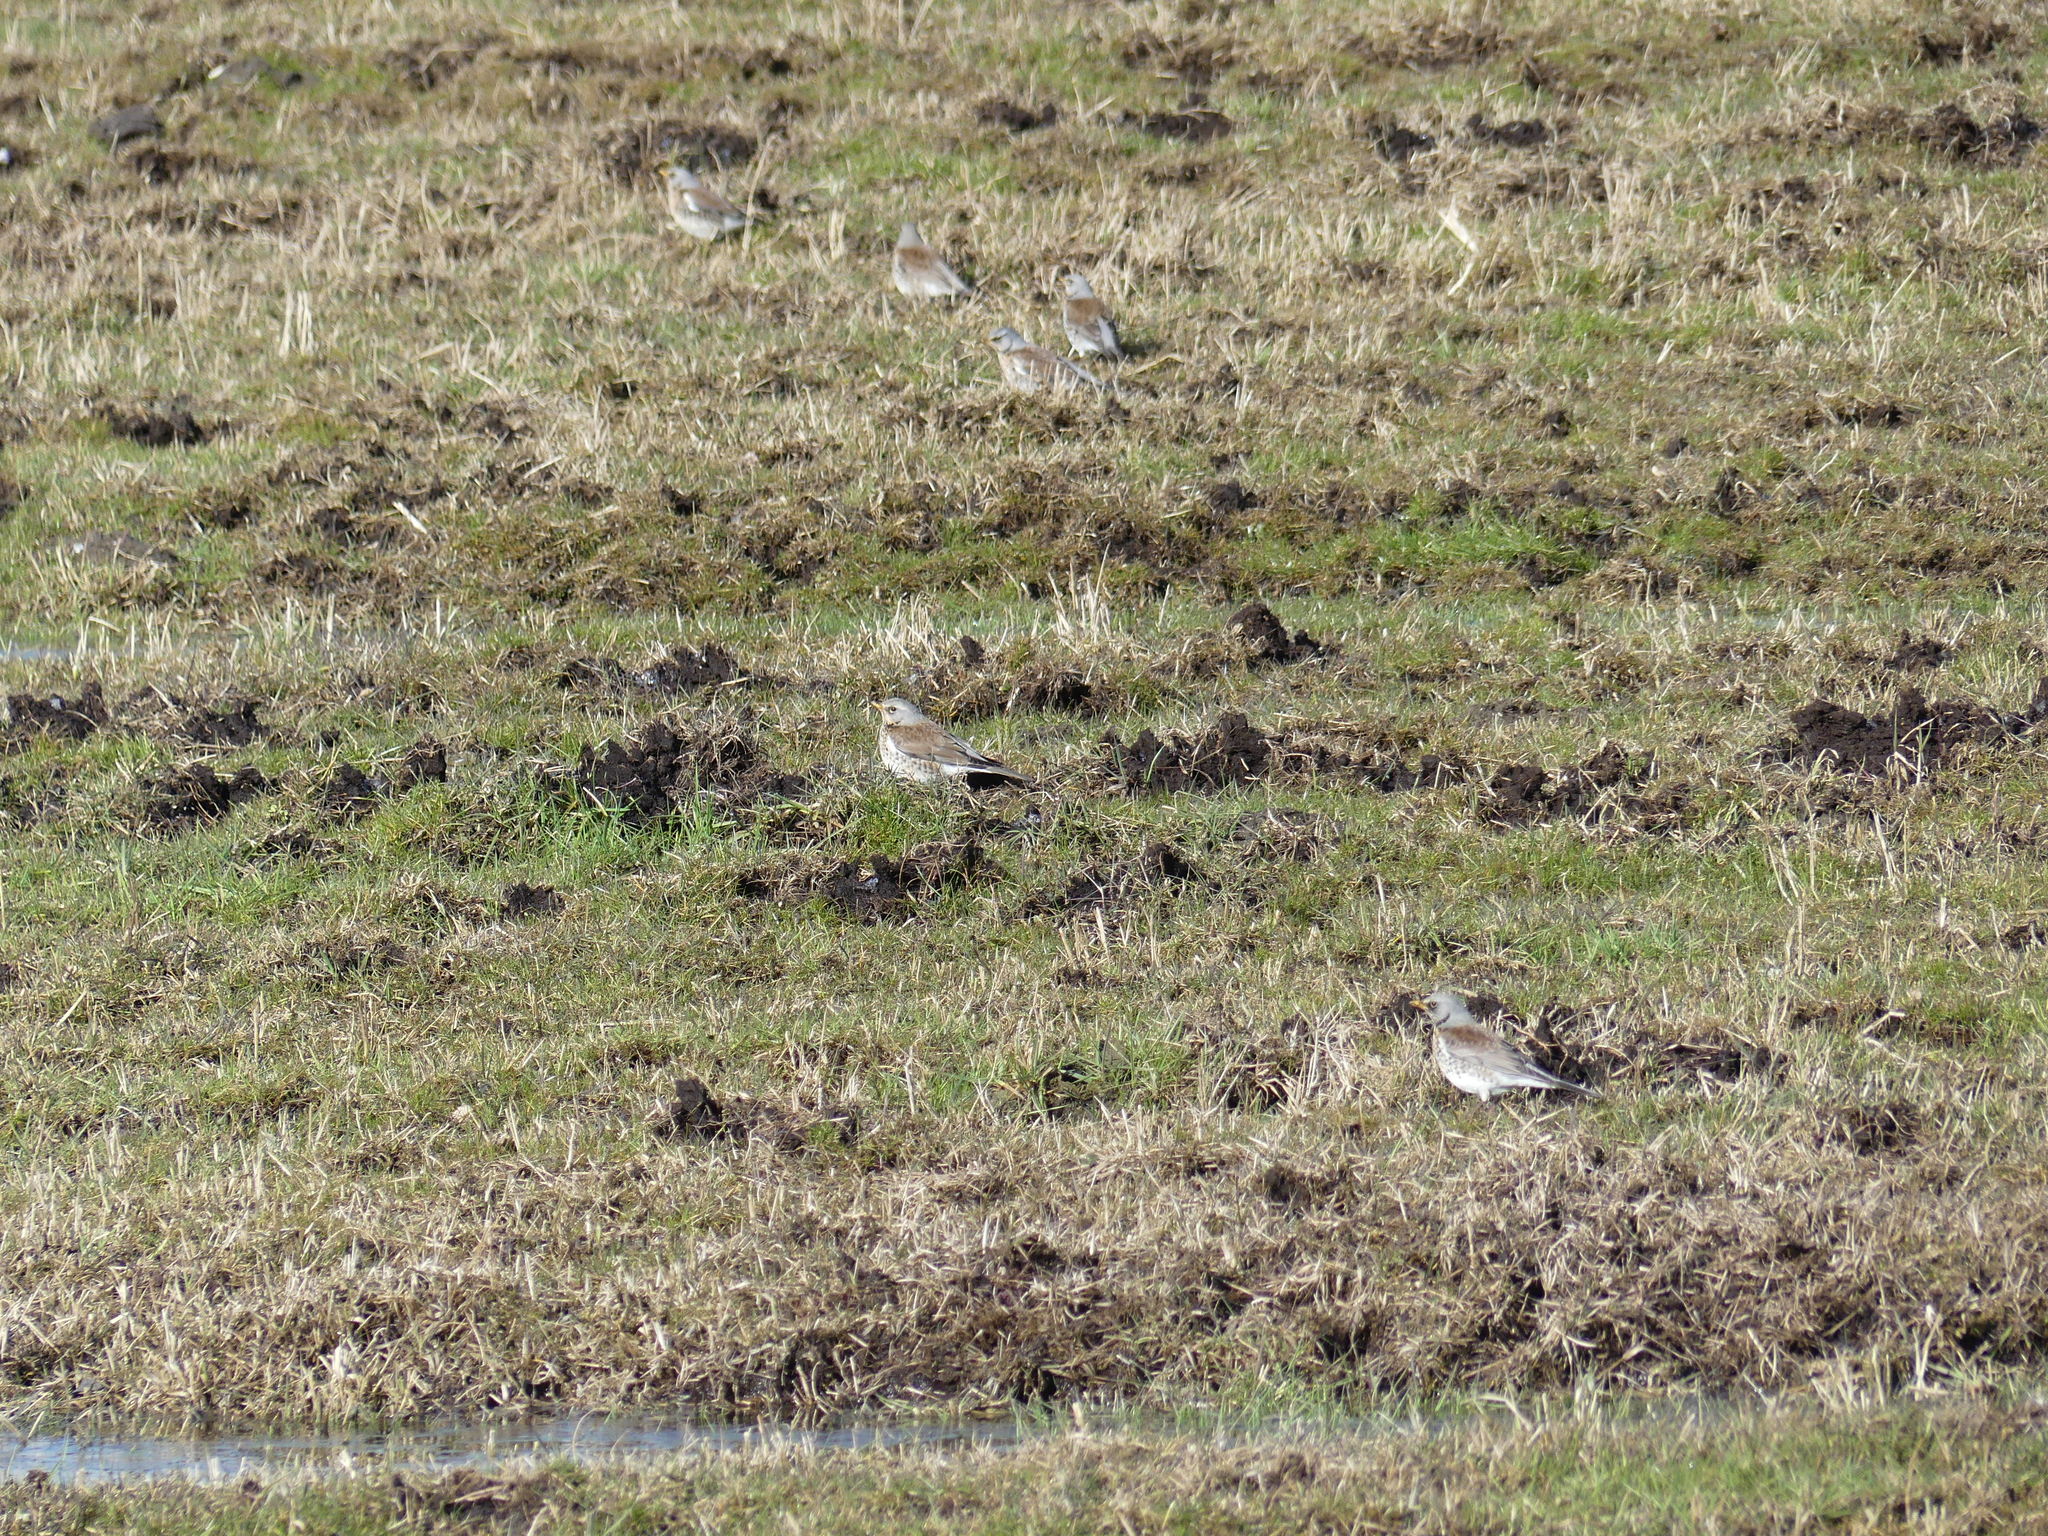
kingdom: Animalia
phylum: Chordata
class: Aves
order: Passeriformes
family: Turdidae
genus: Turdus
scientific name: Turdus pilaris
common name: Fieldfare
